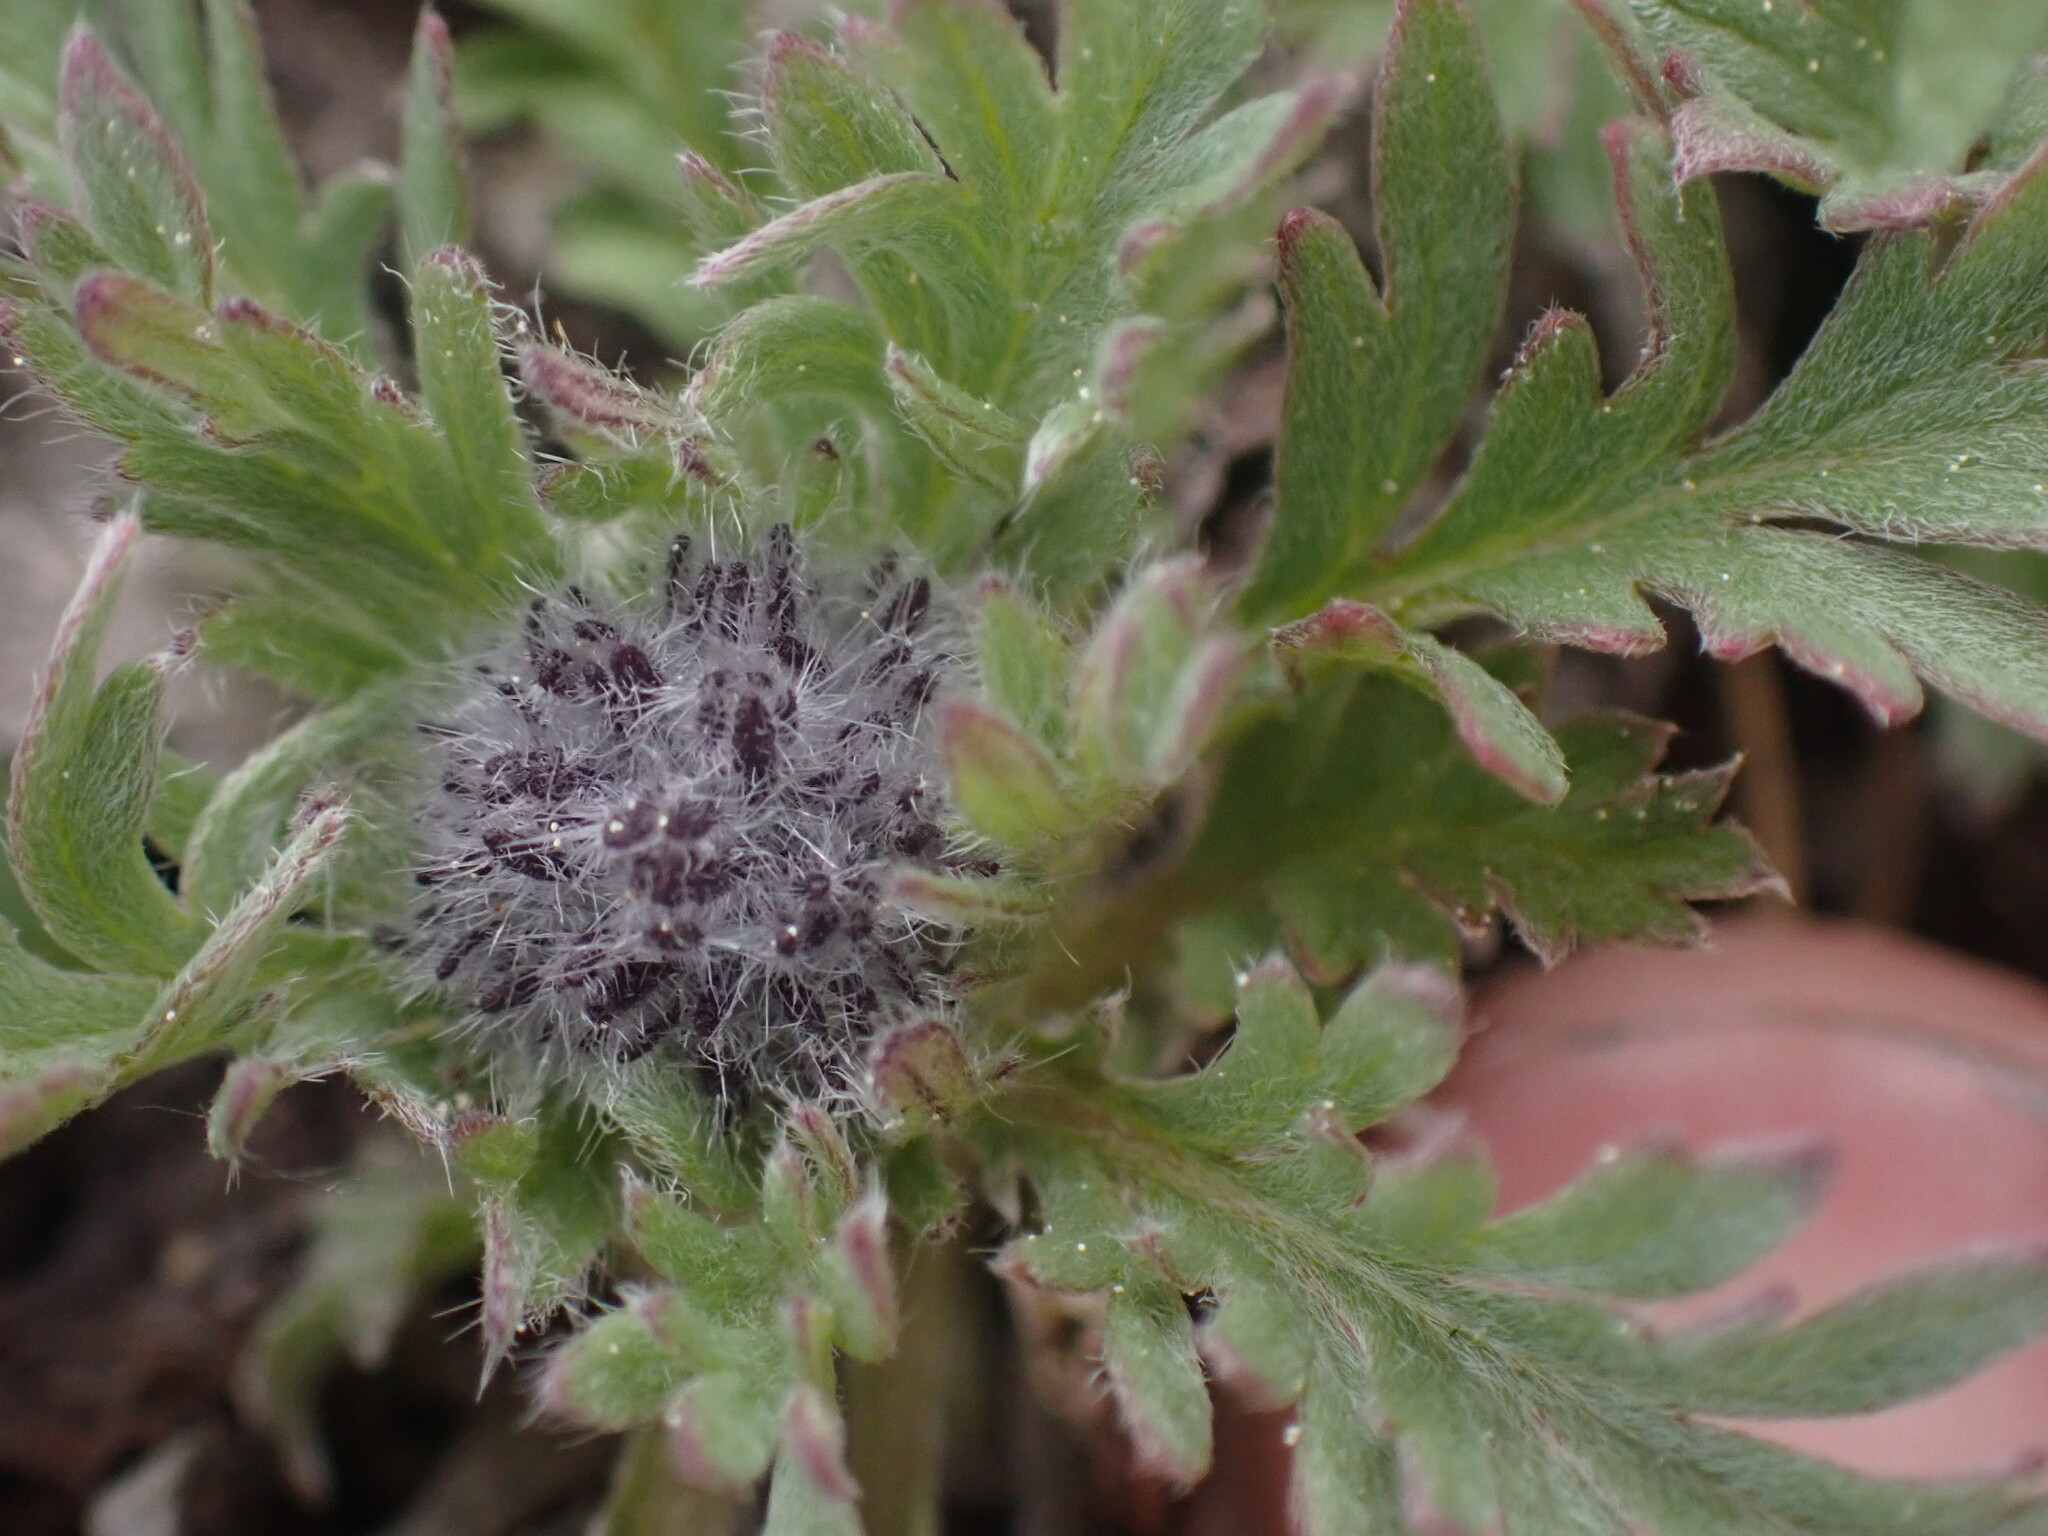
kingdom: Plantae
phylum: Tracheophyta
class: Magnoliopsida
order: Boraginales
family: Hydrophyllaceae
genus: Phacelia
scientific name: Phacelia sericea
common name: Silky phacelia
